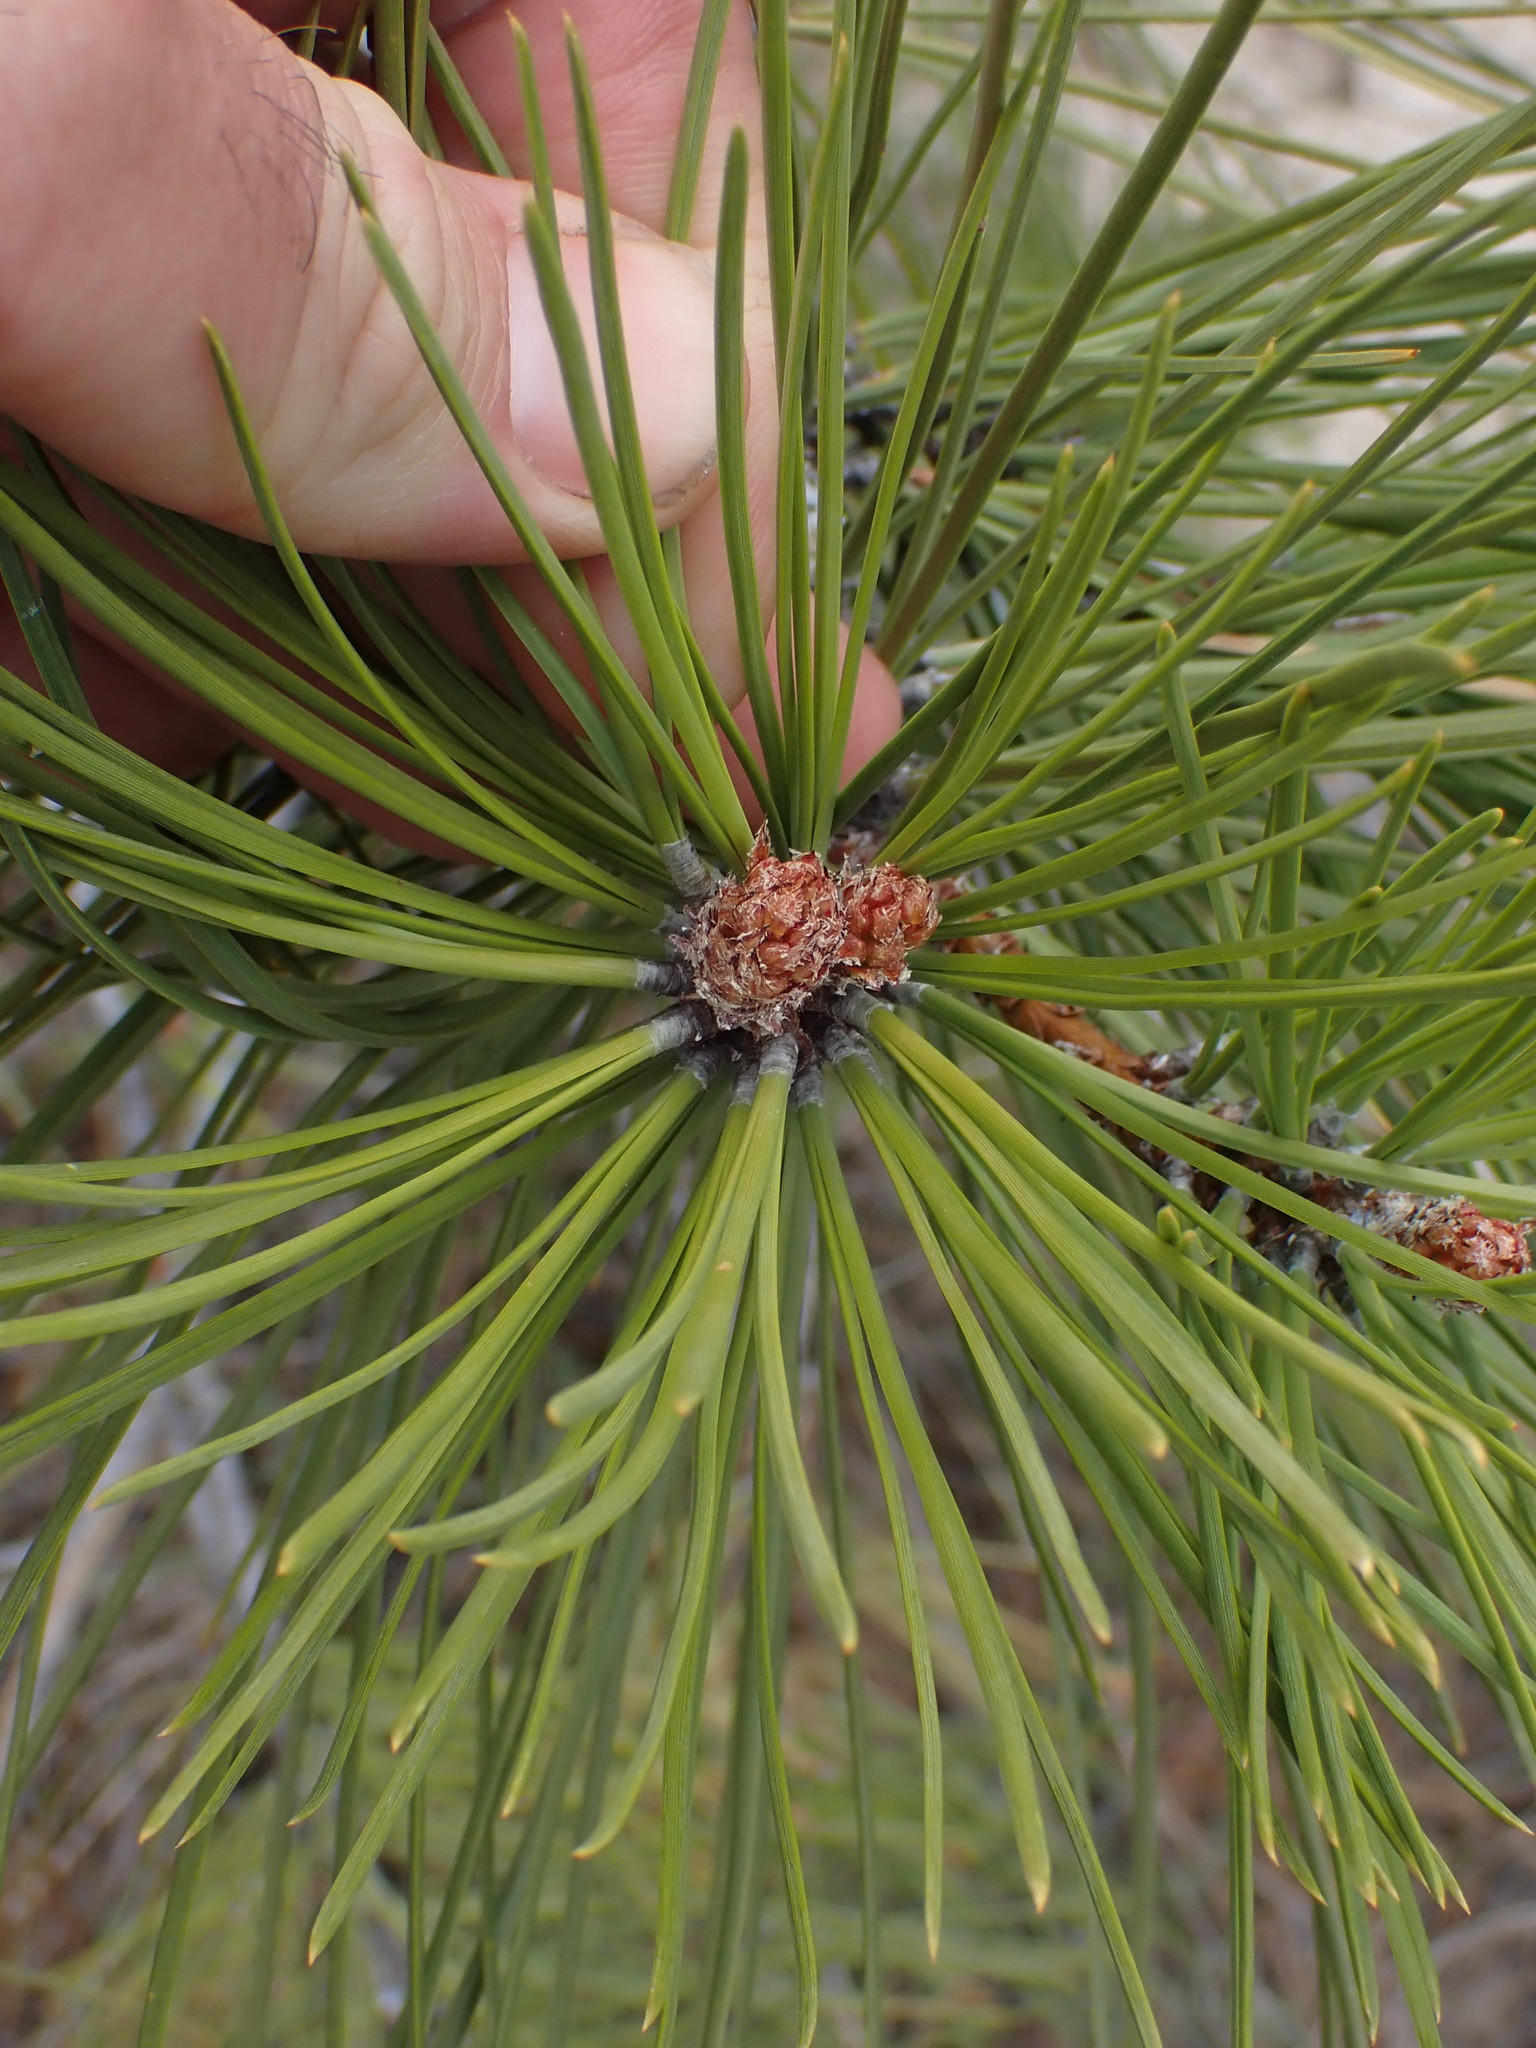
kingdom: Plantae
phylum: Tracheophyta
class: Pinopsida
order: Pinales
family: Pinaceae
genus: Pinus
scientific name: Pinus contorta
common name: Lodgepole pine
